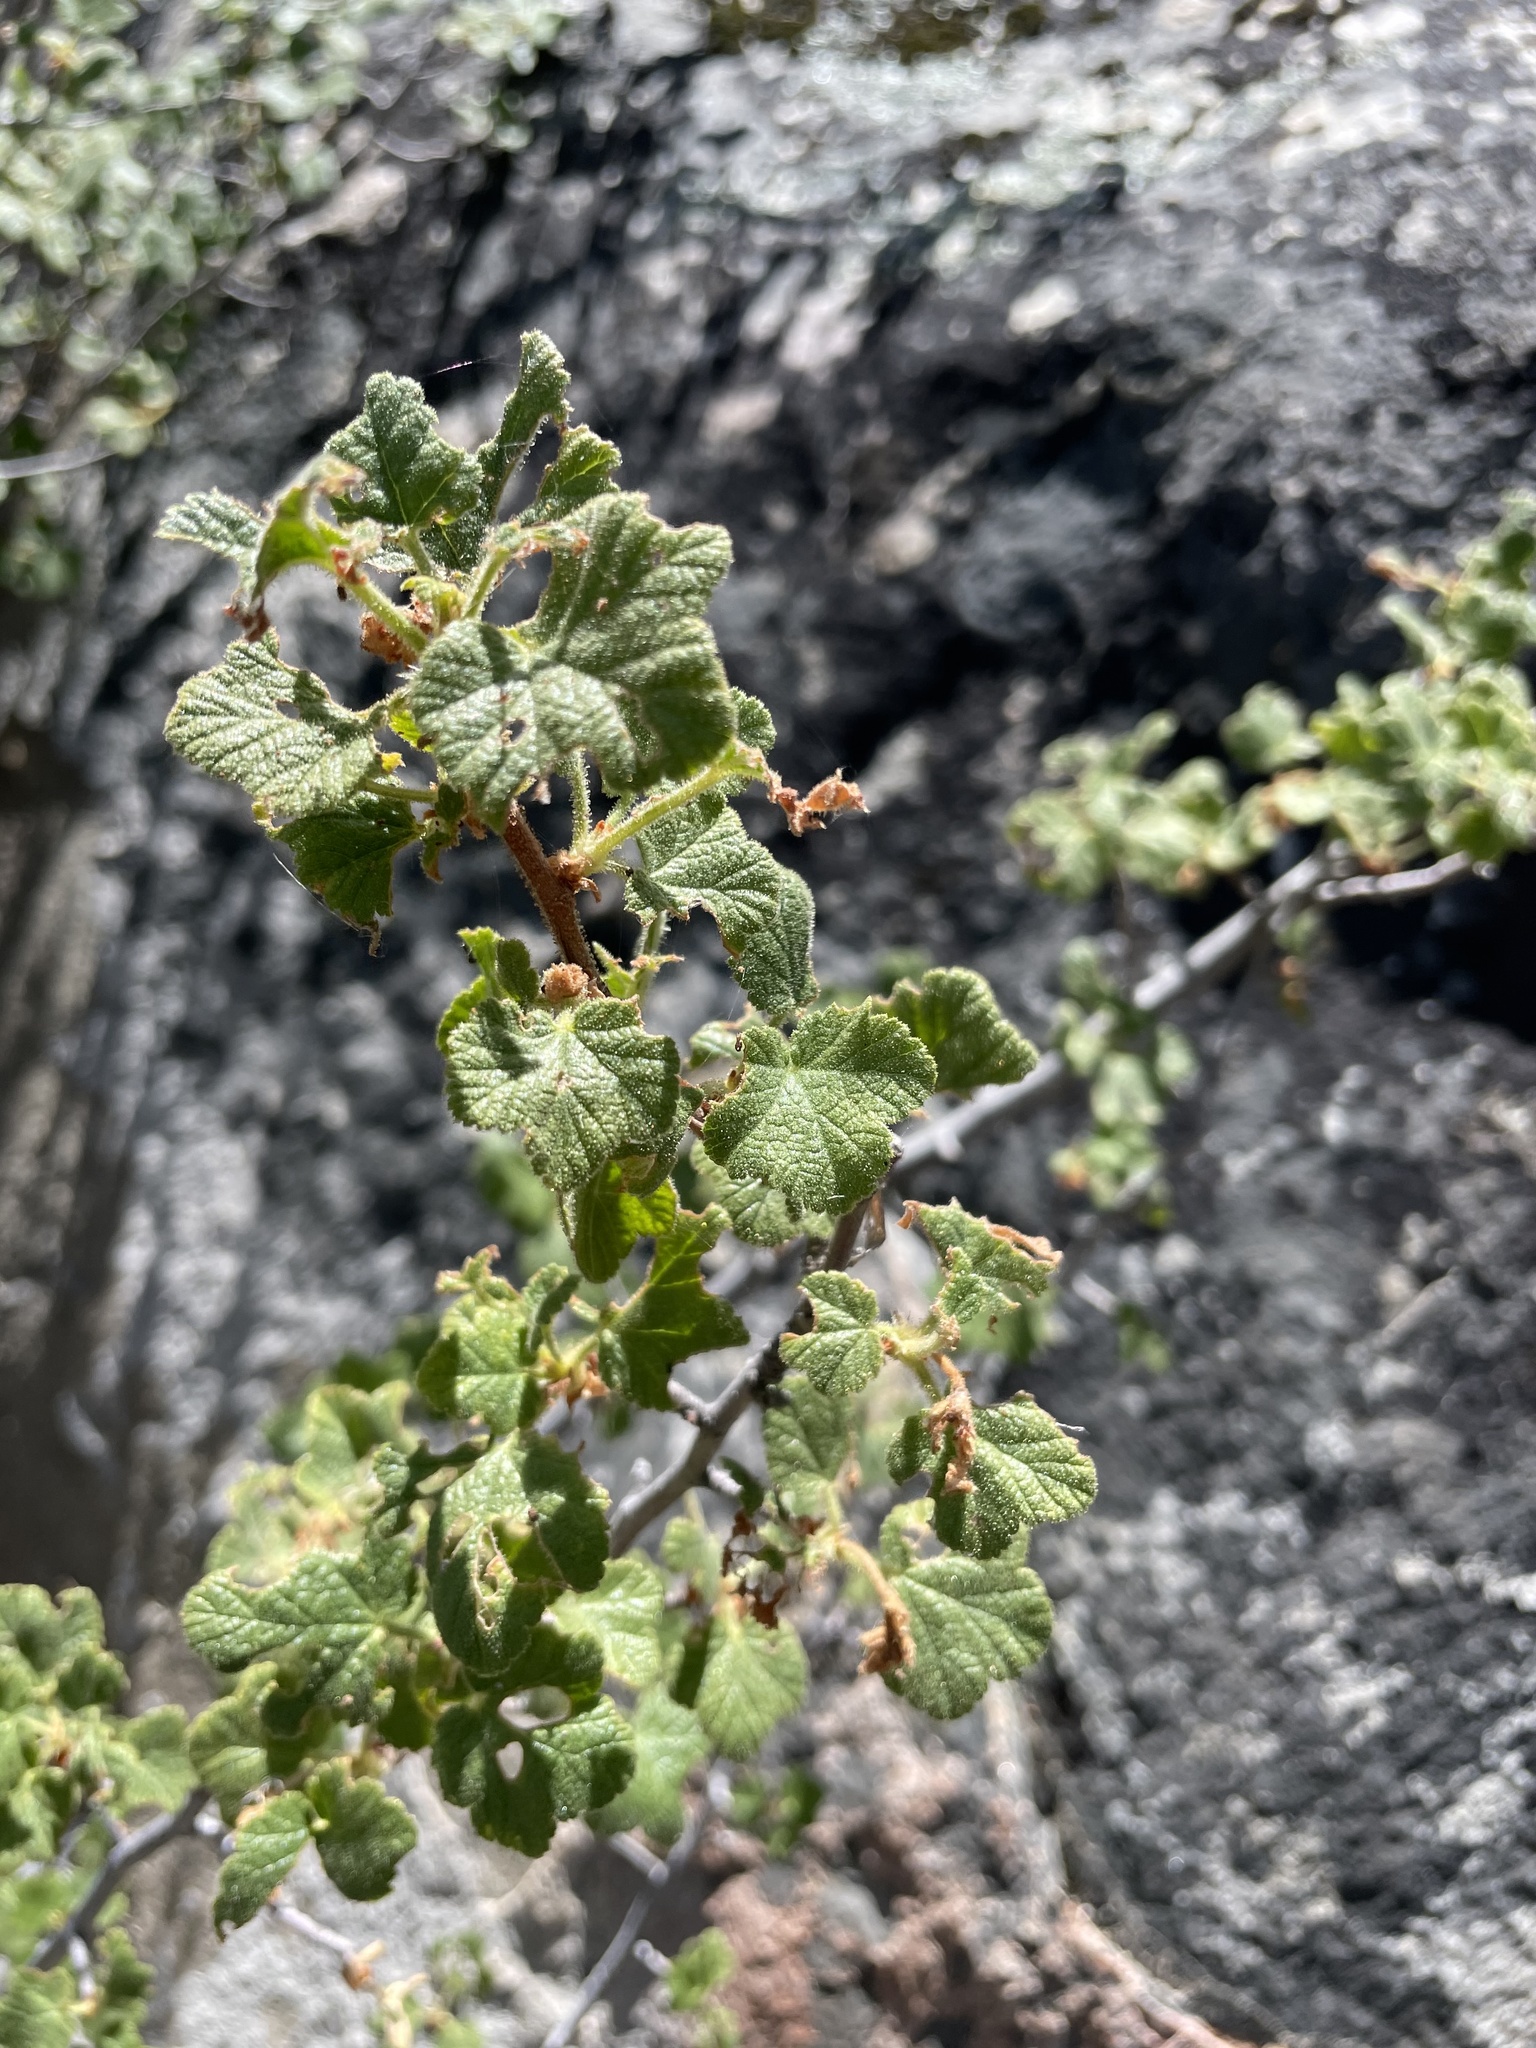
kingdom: Plantae
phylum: Tracheophyta
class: Magnoliopsida
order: Saxifragales
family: Grossulariaceae
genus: Ribes
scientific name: Ribes malvaceum
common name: Chaparral currant
